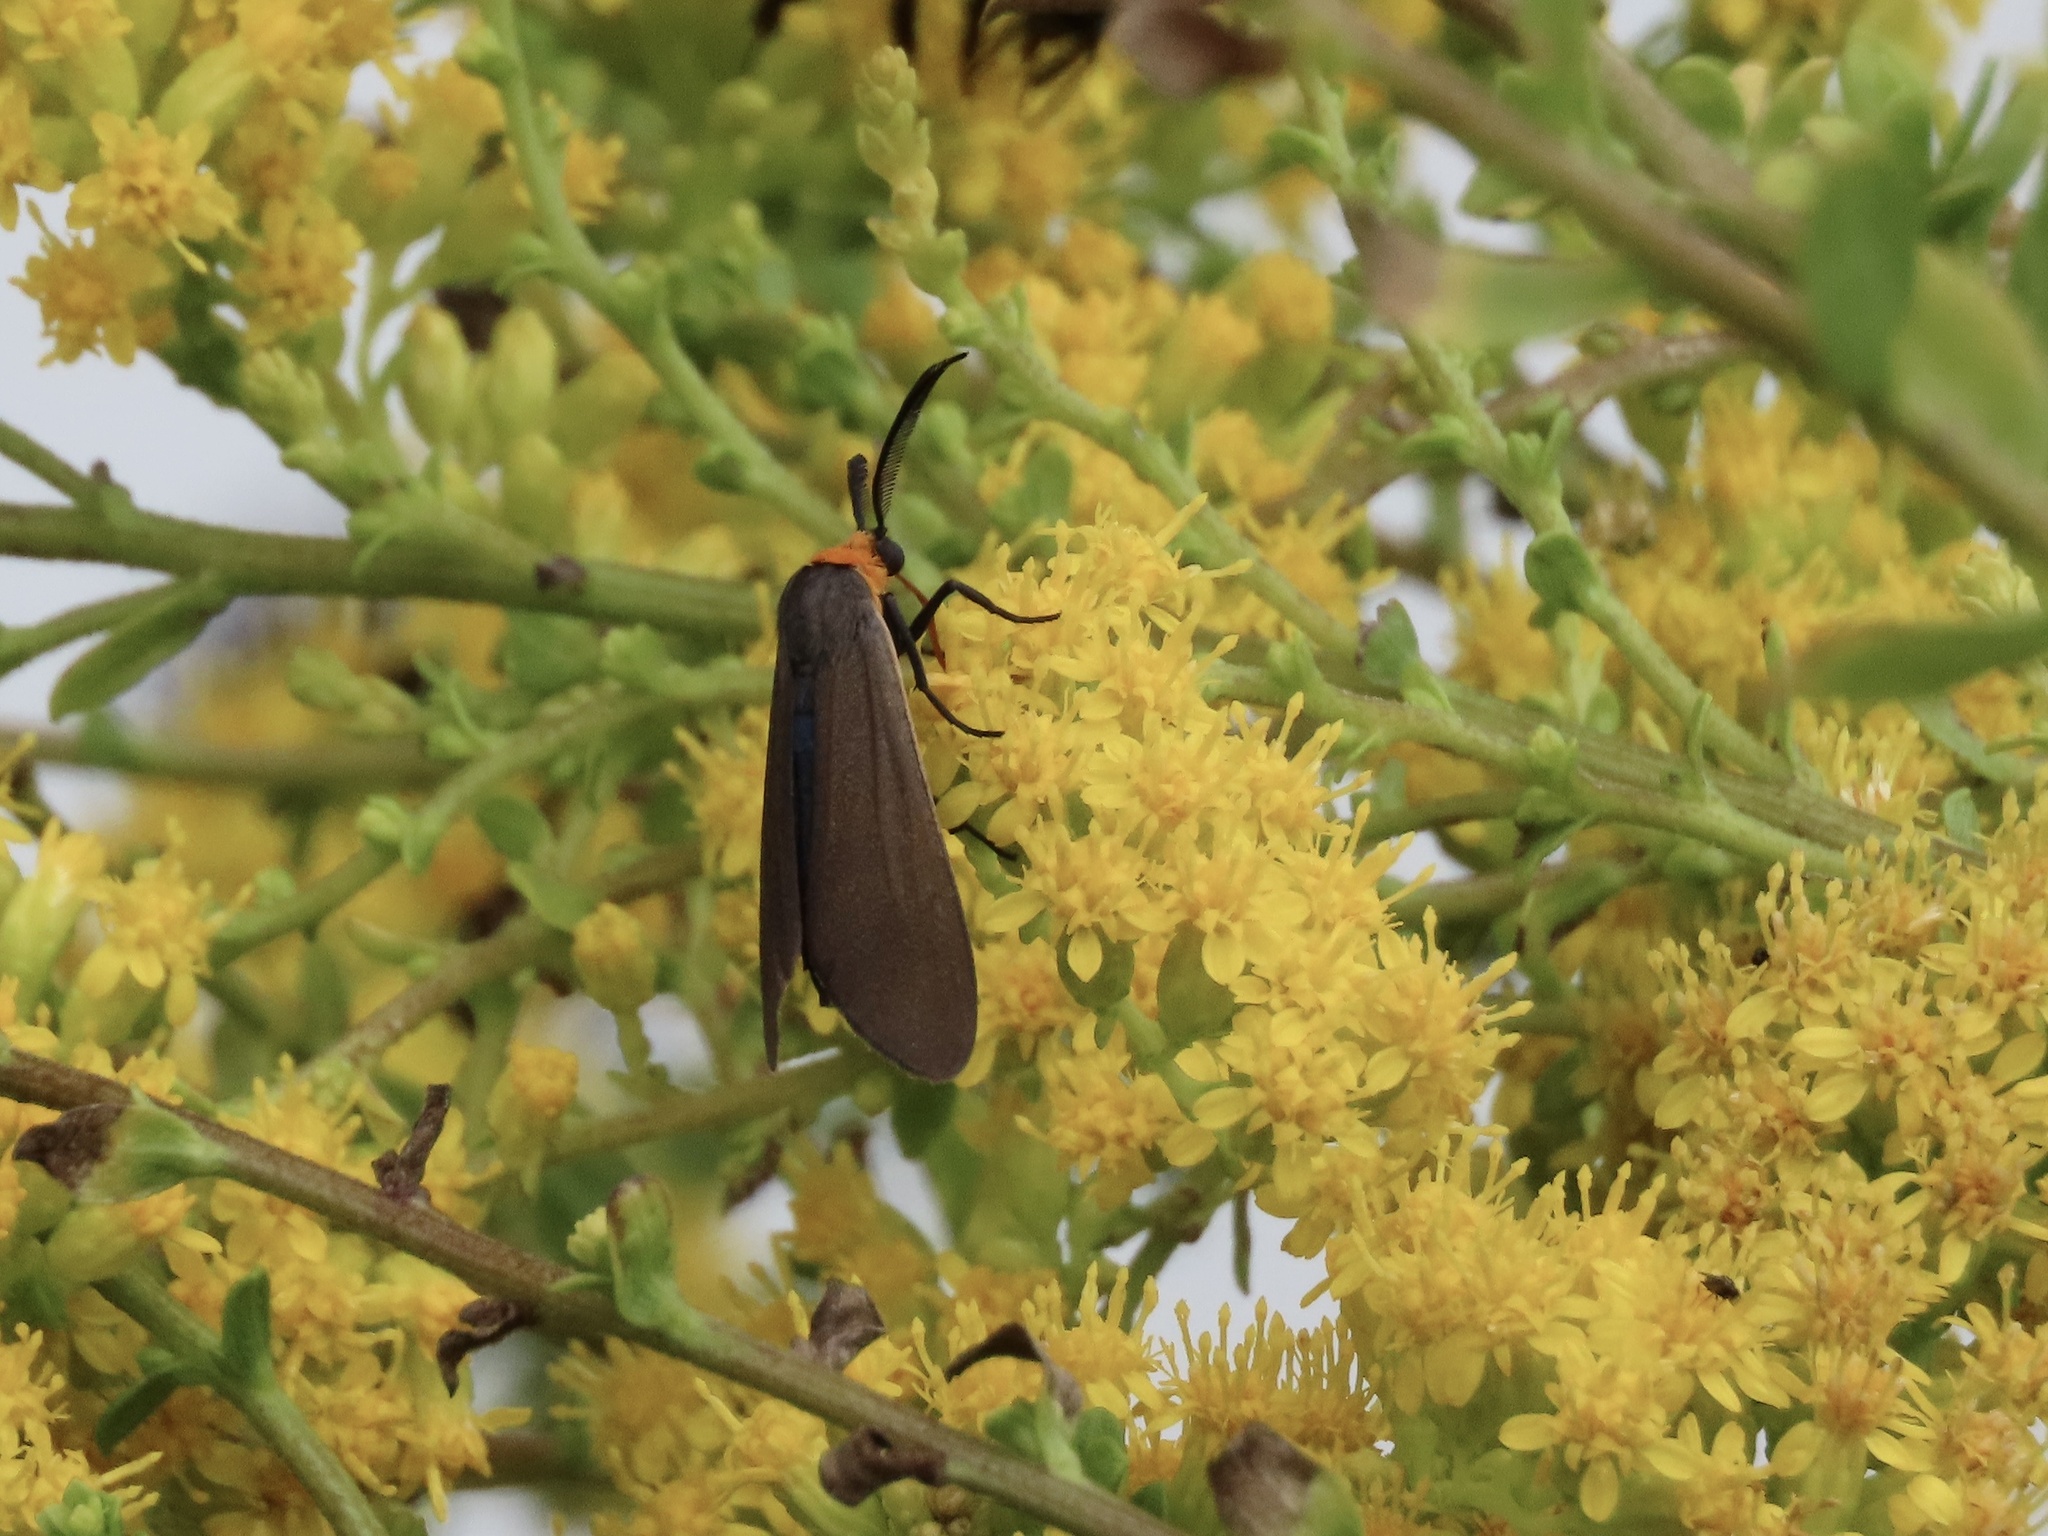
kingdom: Animalia
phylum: Arthropoda
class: Insecta
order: Lepidoptera
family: Erebidae
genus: Cisseps
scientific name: Cisseps fulvicollis
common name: Yellow-collared scape moth
